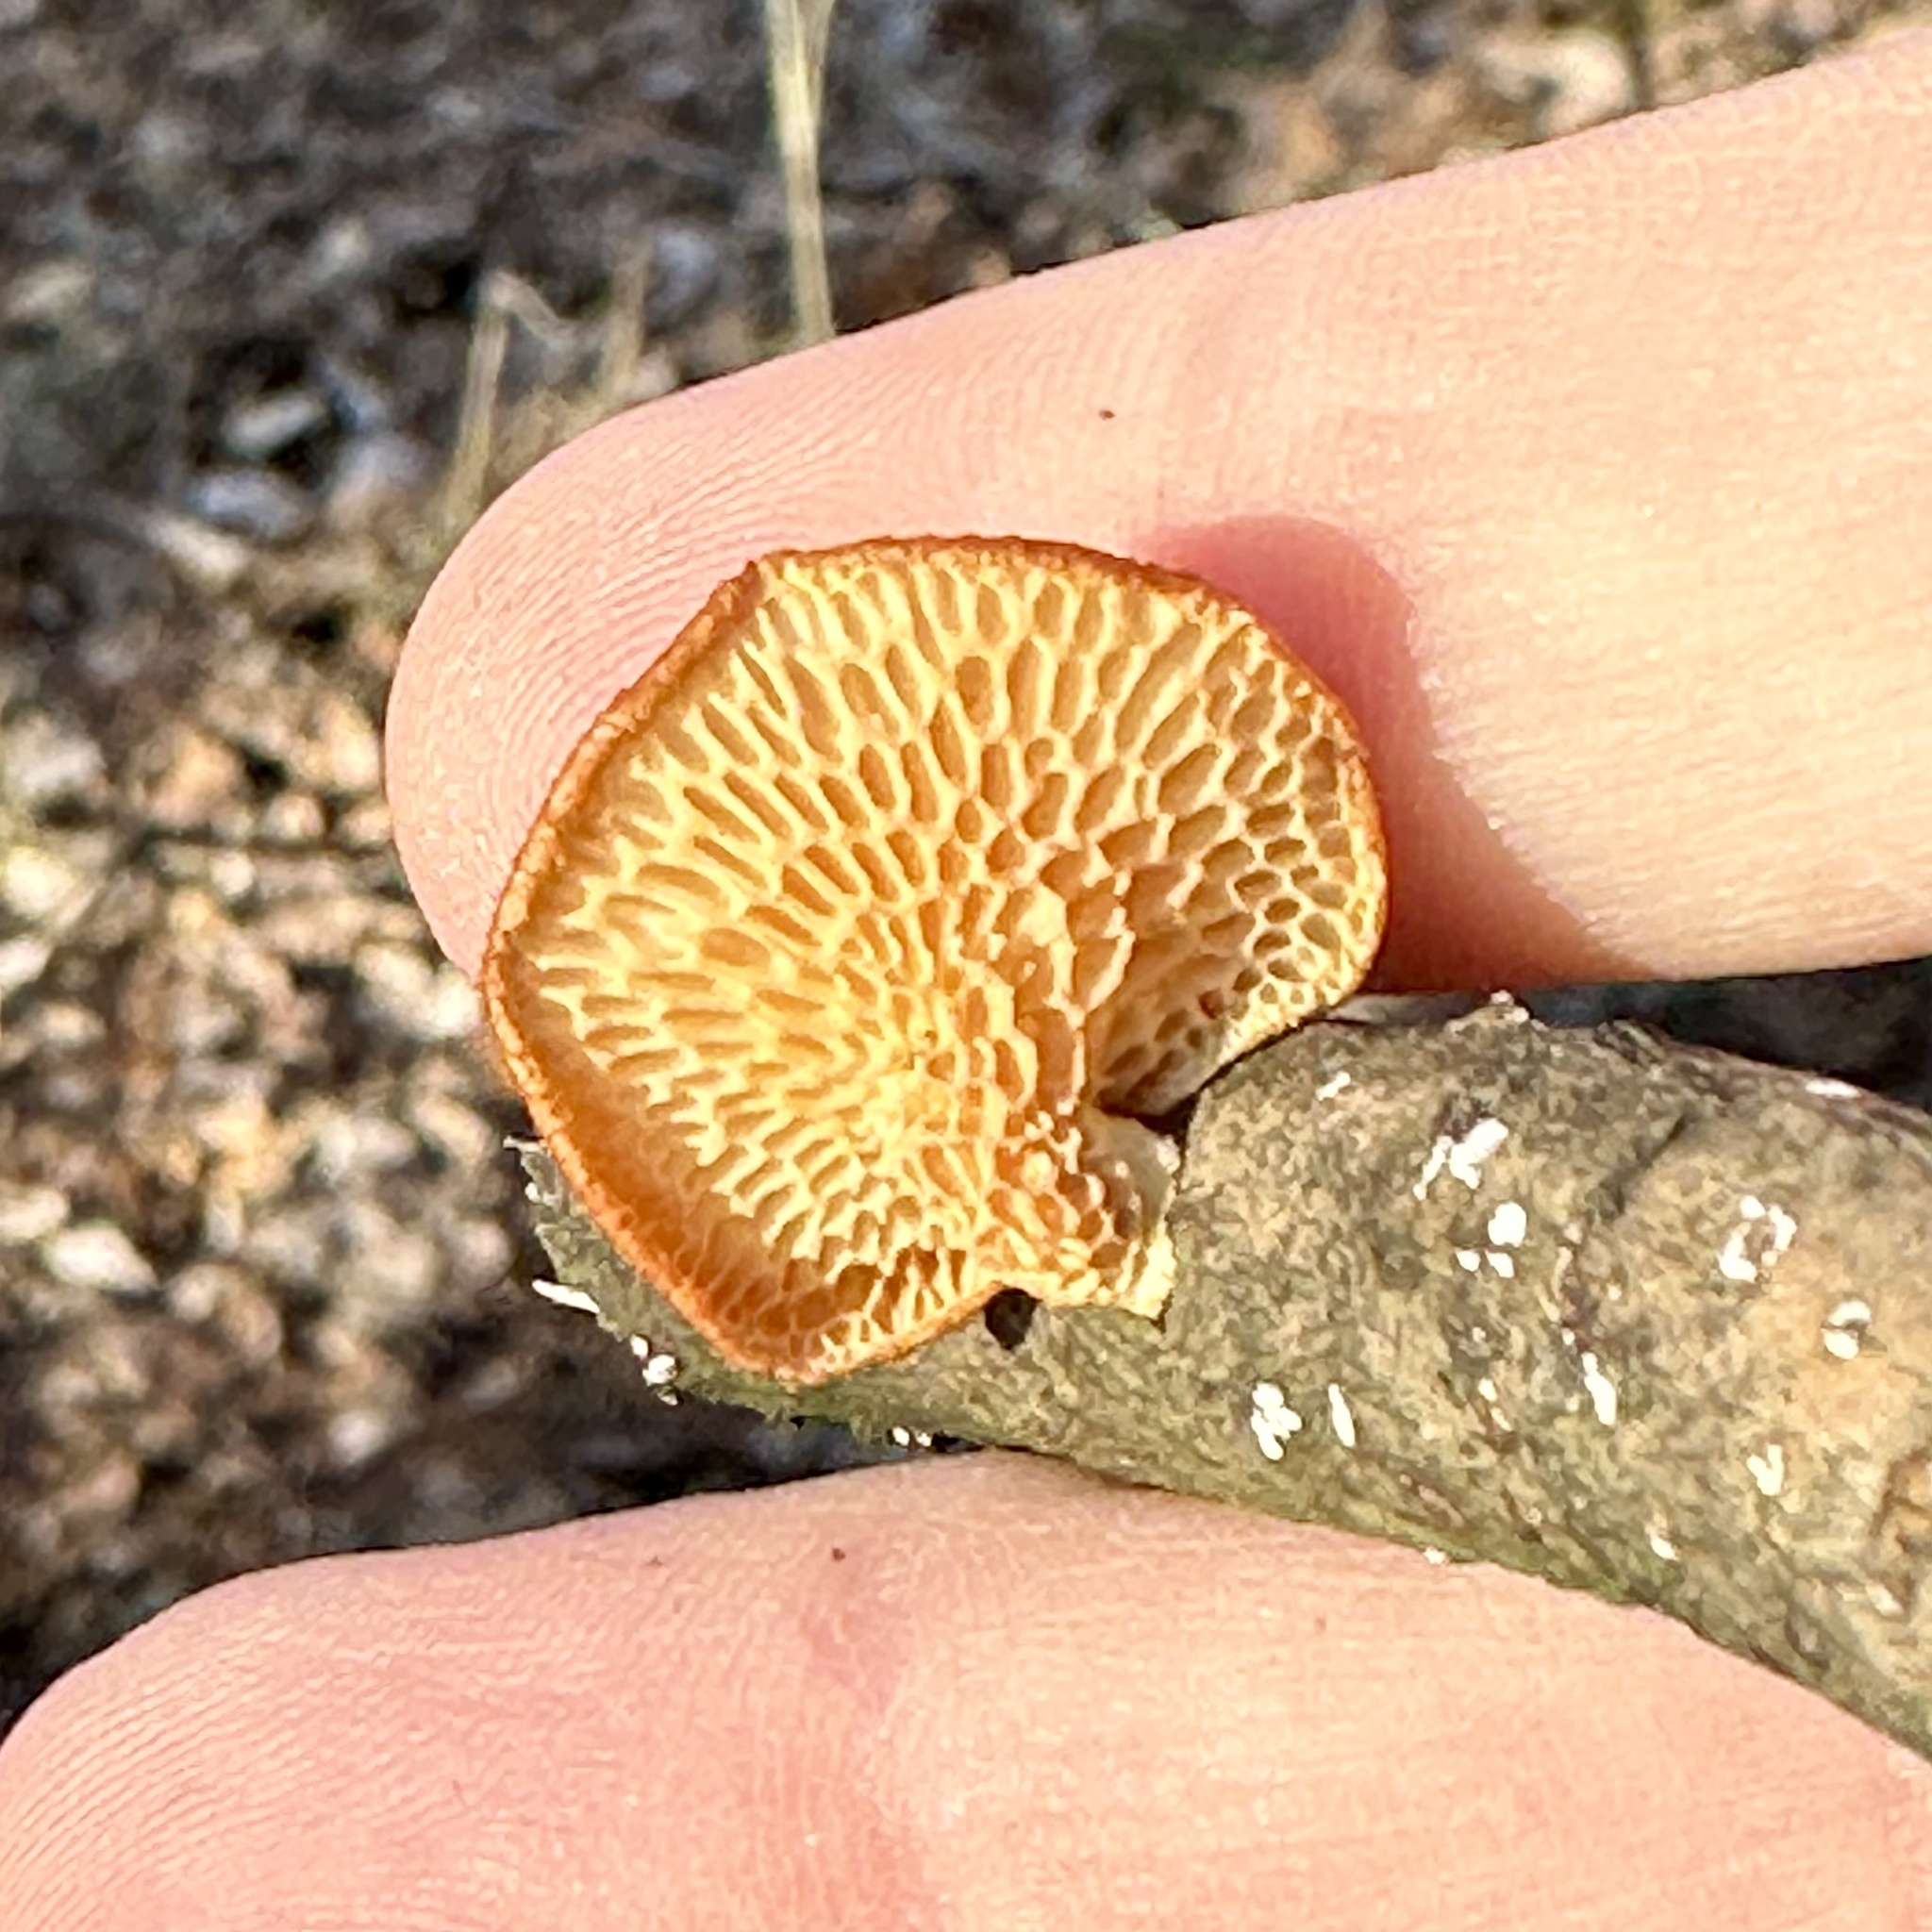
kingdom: Fungi
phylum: Basidiomycota
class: Agaricomycetes
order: Polyporales
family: Polyporaceae
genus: Neofavolus
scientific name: Neofavolus alveolaris
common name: Hexagonal-pored polypore
